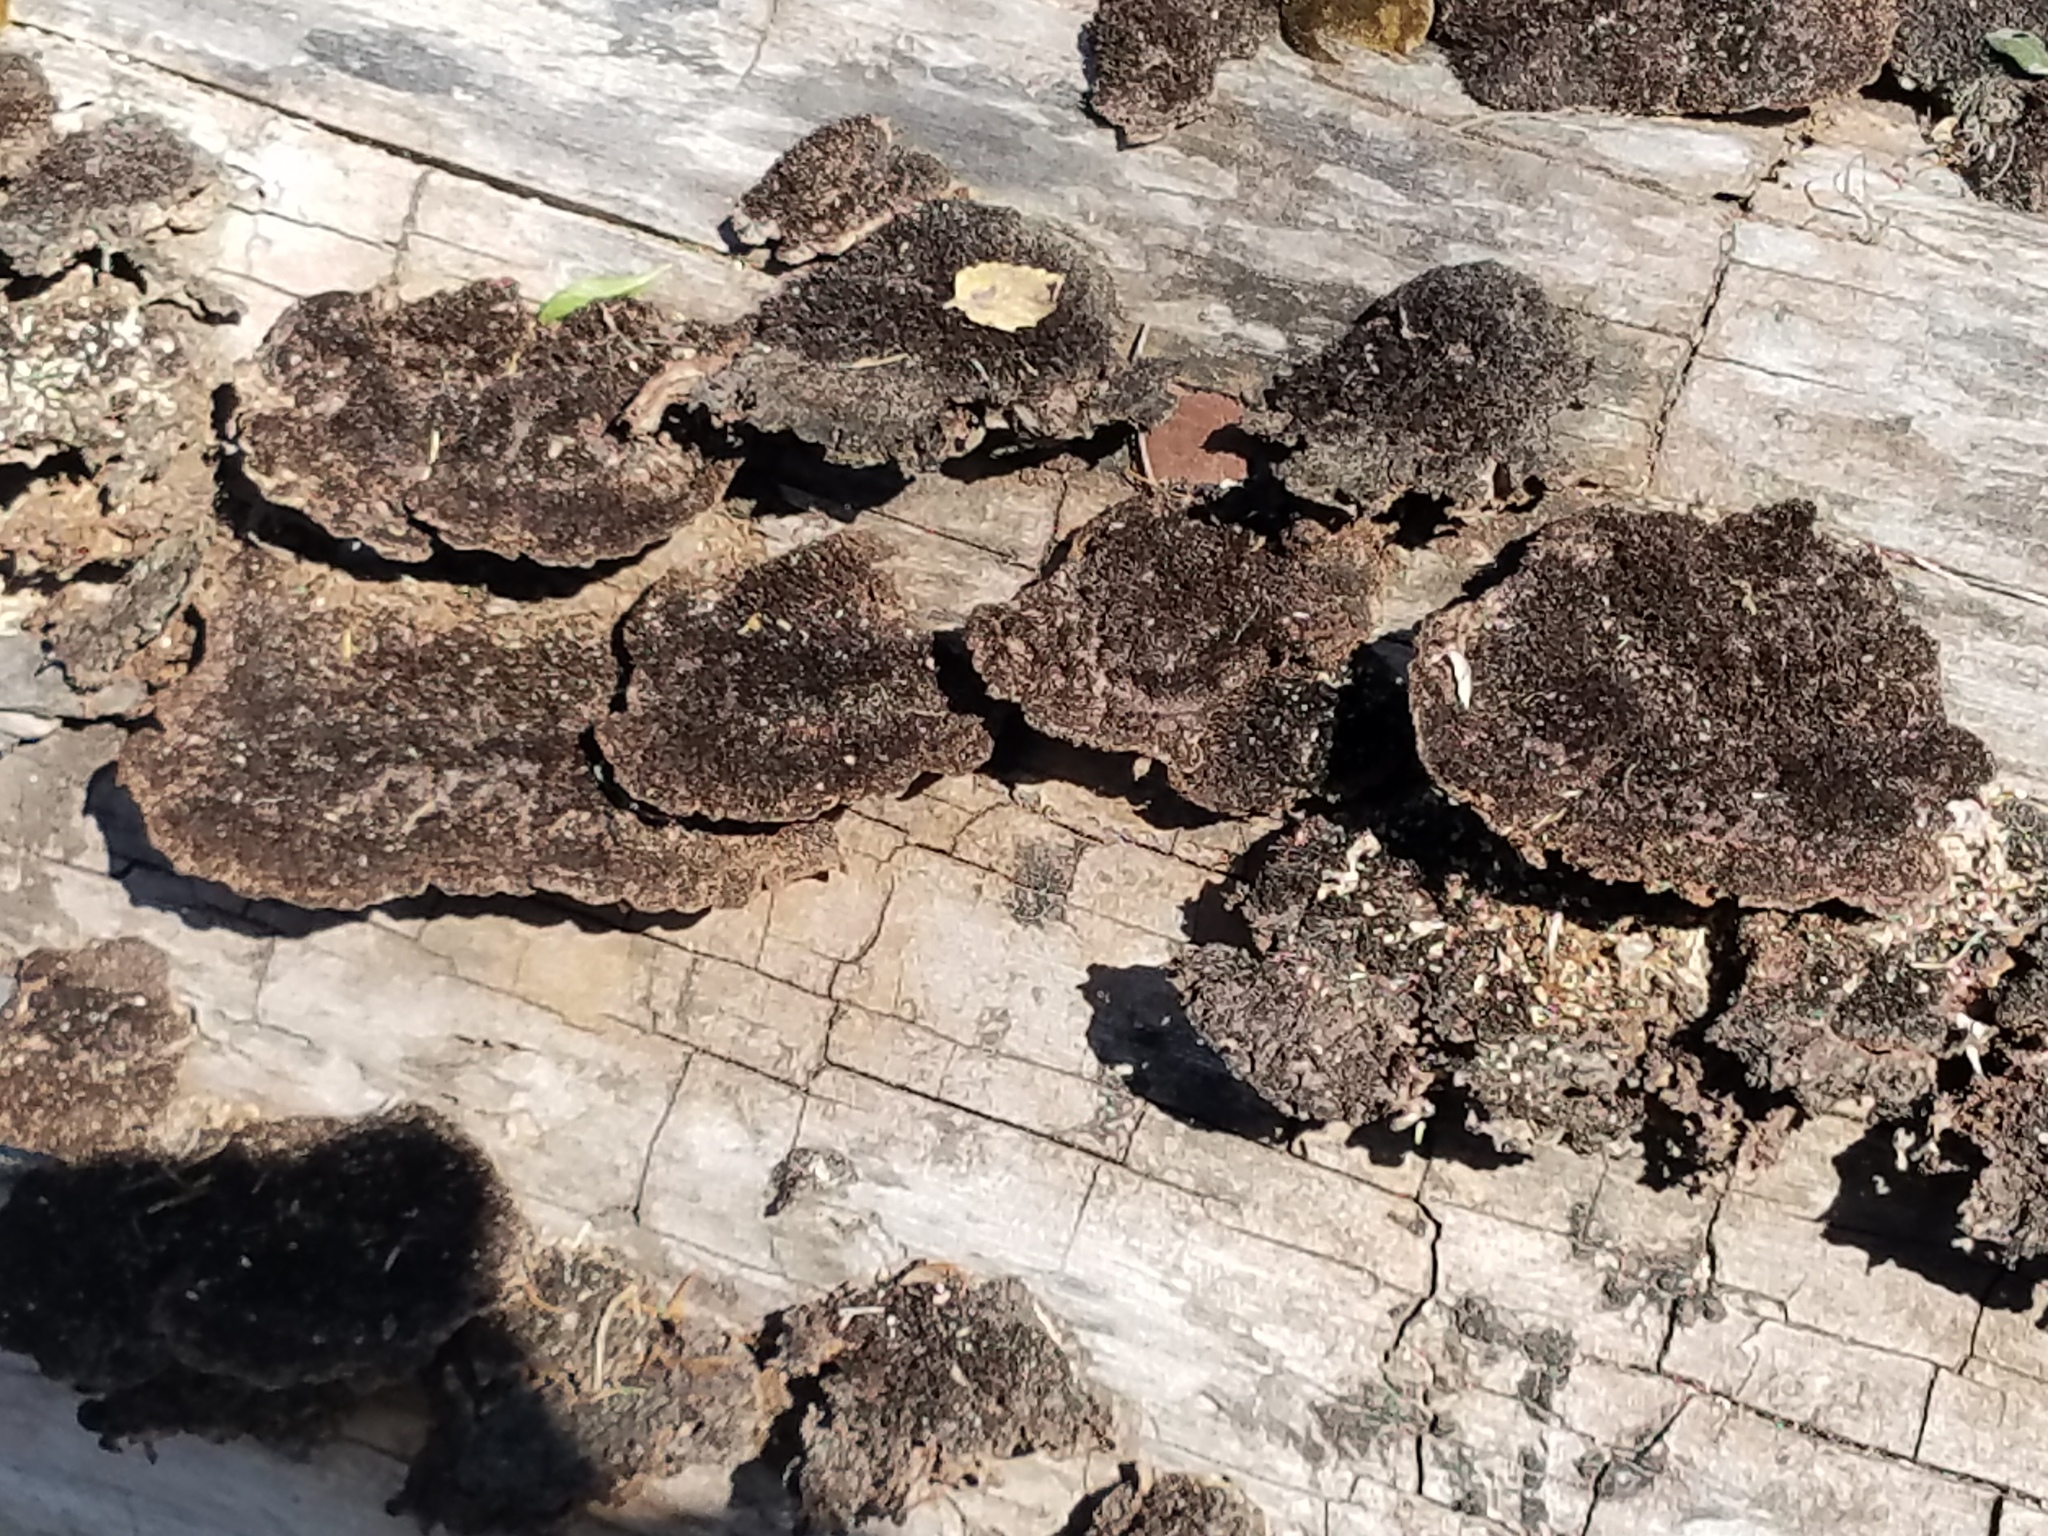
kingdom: Fungi
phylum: Basidiomycota
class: Agaricomycetes
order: Polyporales
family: Cerrenaceae
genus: Cerrena
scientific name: Cerrena hydnoides
